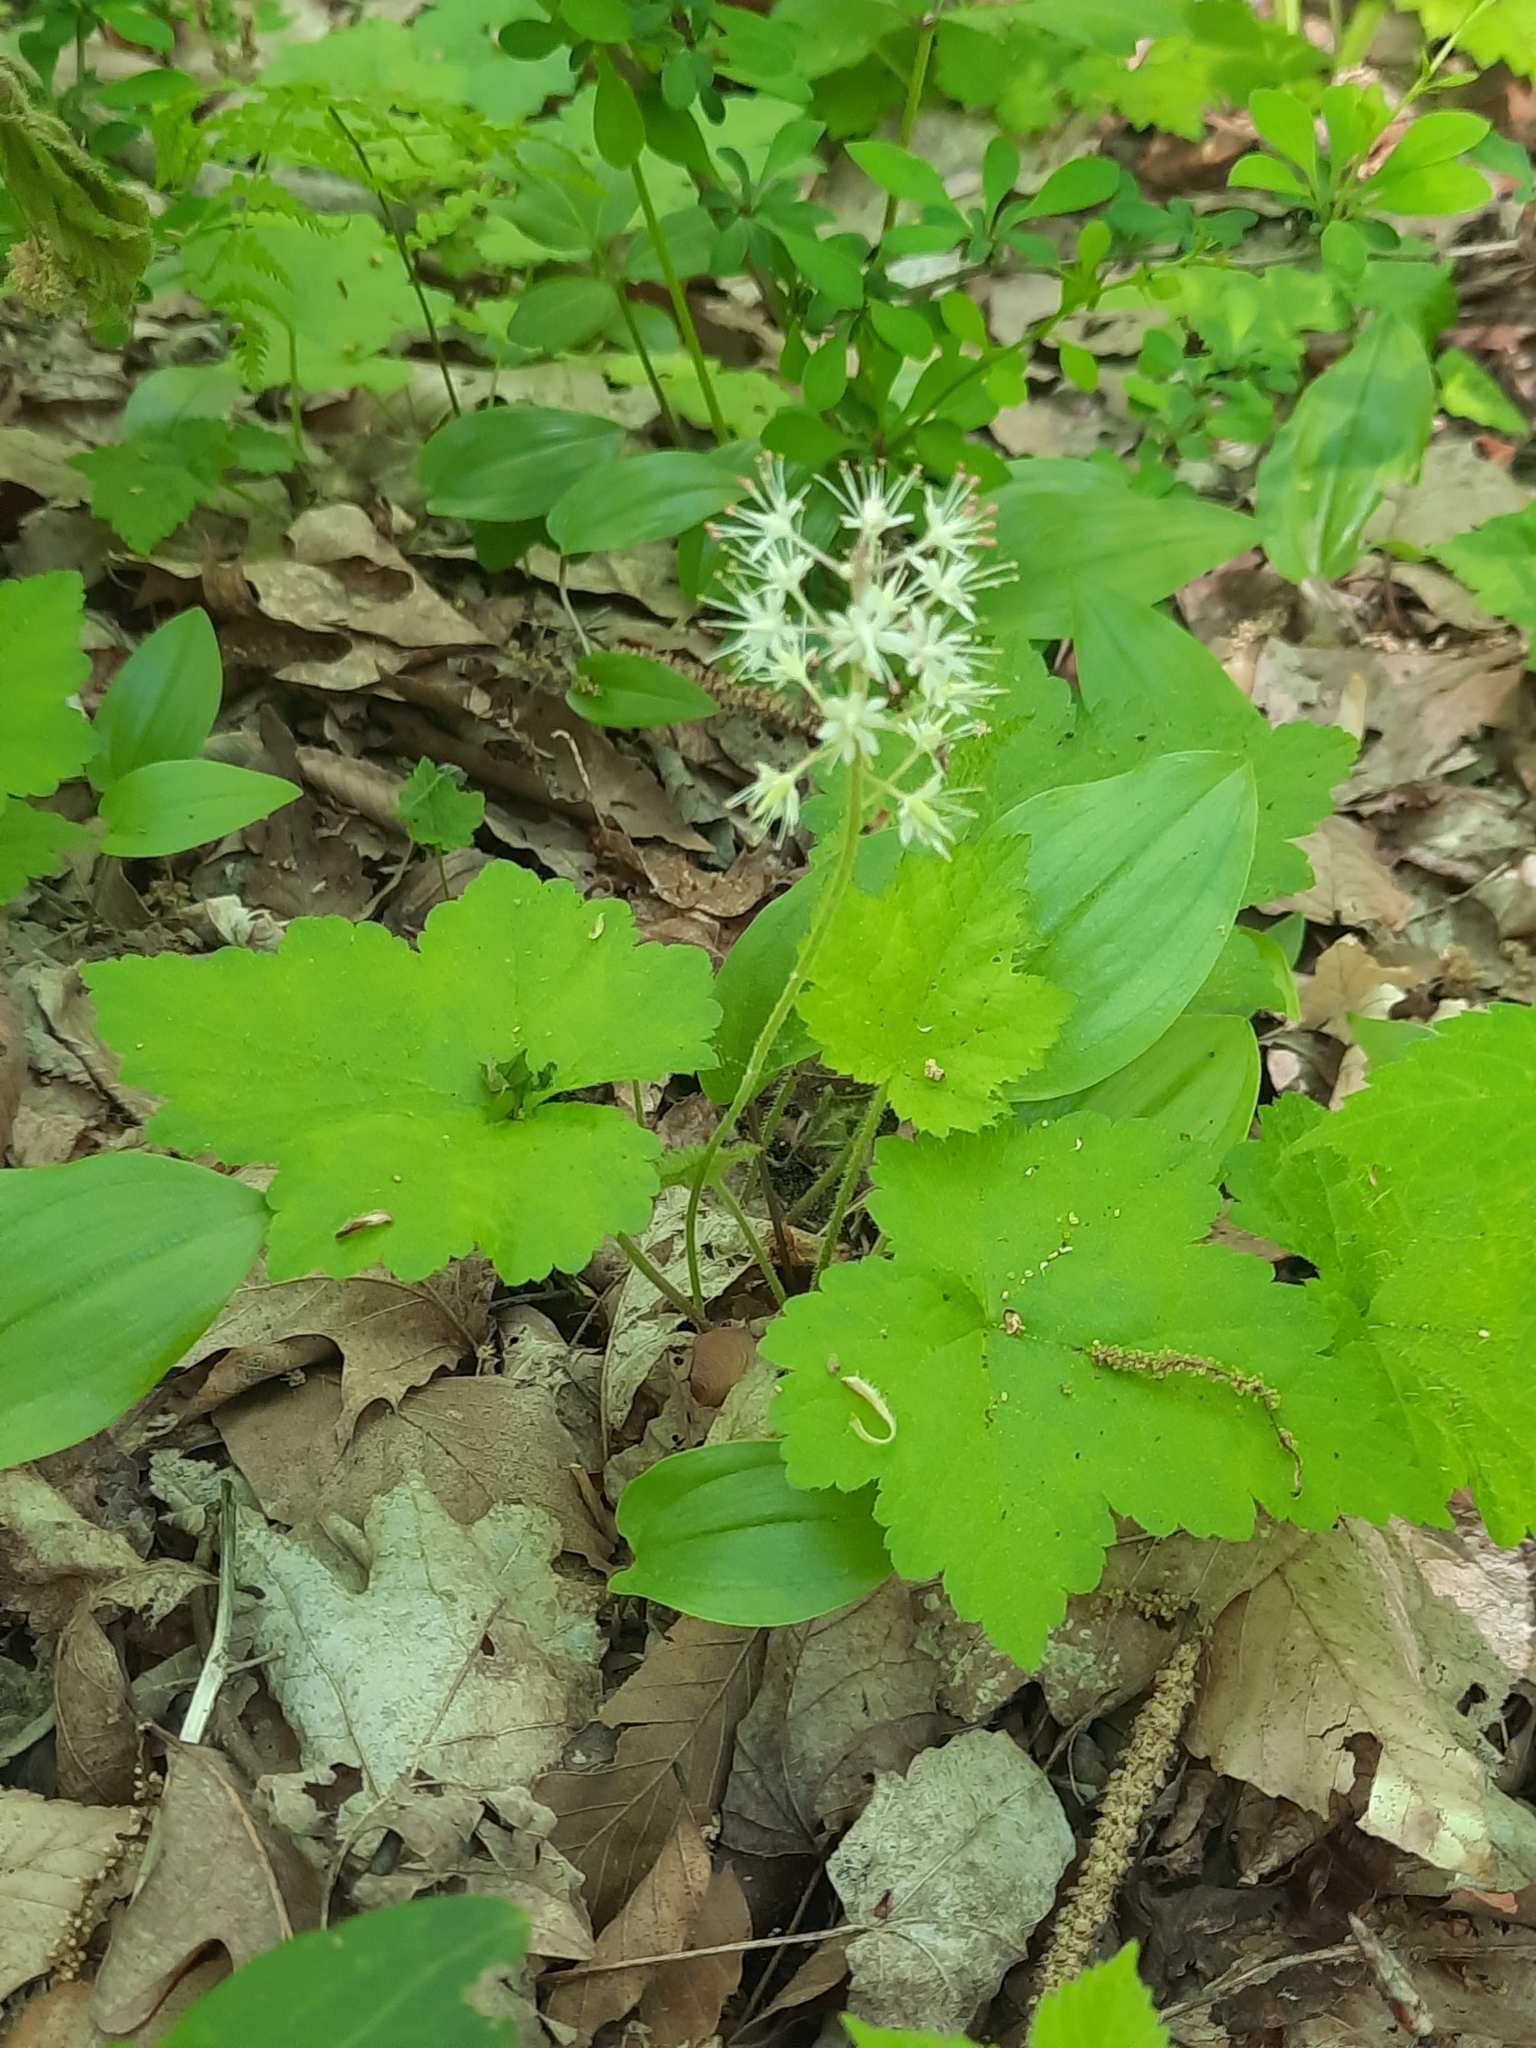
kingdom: Plantae
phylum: Tracheophyta
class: Magnoliopsida
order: Saxifragales
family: Saxifragaceae
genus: Tiarella
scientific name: Tiarella stolonifera
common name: Stoloniferous foamflower
